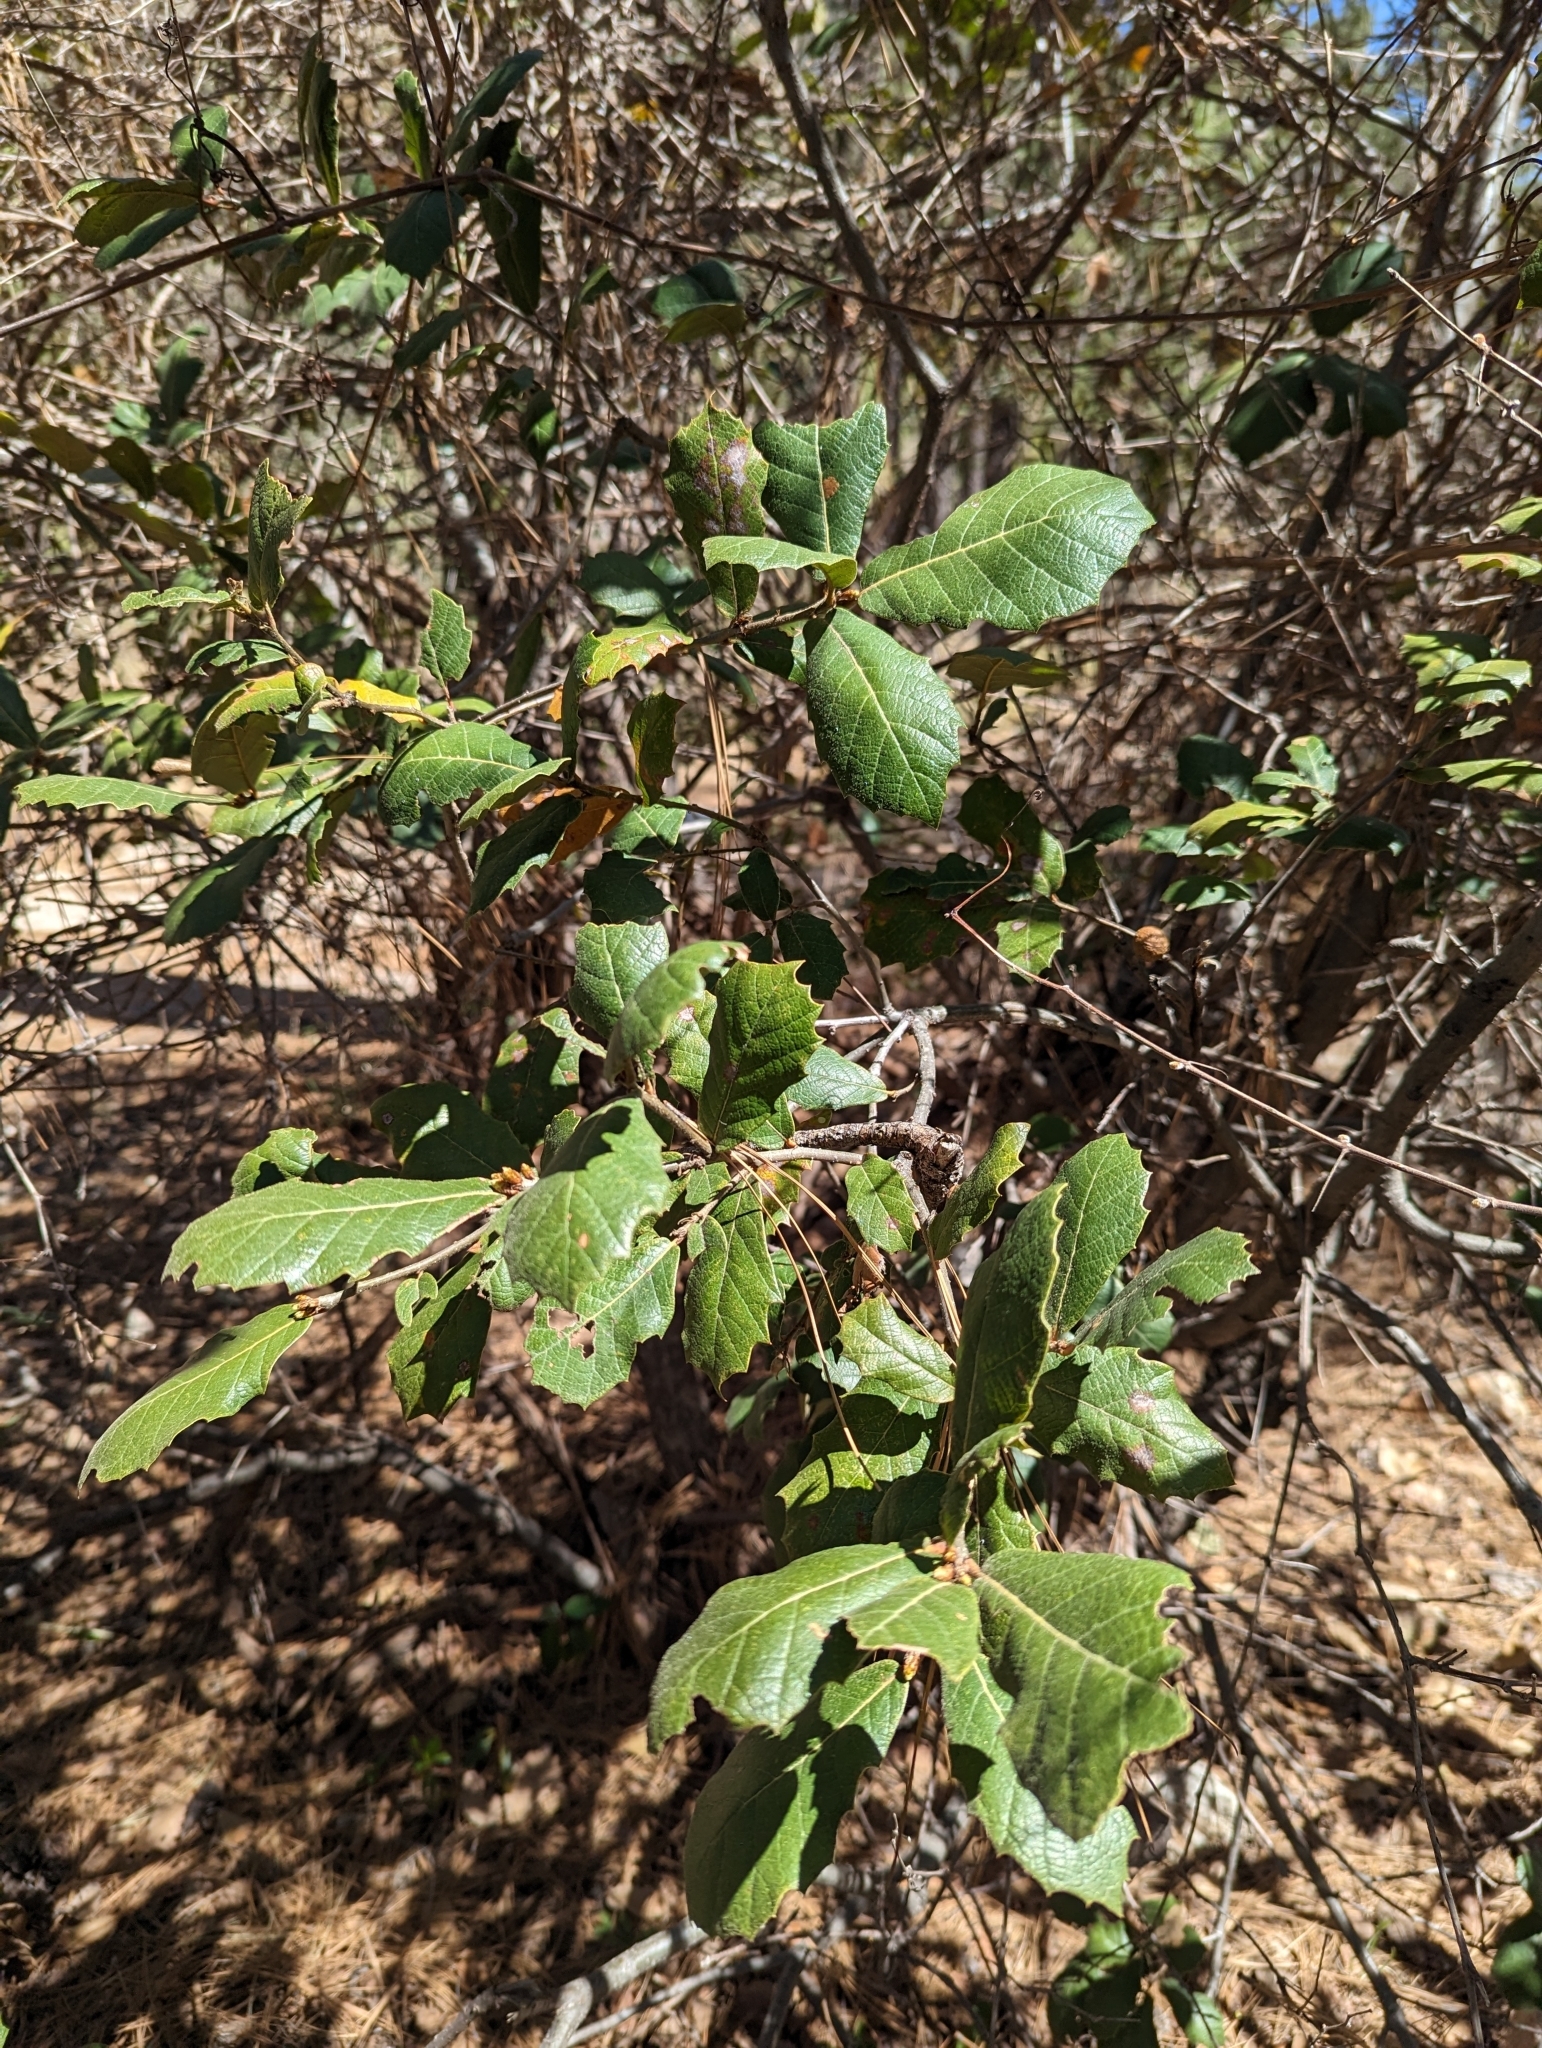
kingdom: Plantae
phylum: Tracheophyta
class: Magnoliopsida
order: Fagales
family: Fagaceae
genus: Quercus
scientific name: Quercus rugosa
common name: Netleaf oak
